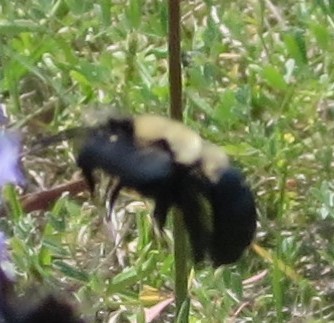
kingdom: Animalia
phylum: Arthropoda
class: Insecta
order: Hymenoptera
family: Apidae
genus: Habropoda
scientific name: Habropoda laboriosa
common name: Southeastern blueberry bee
